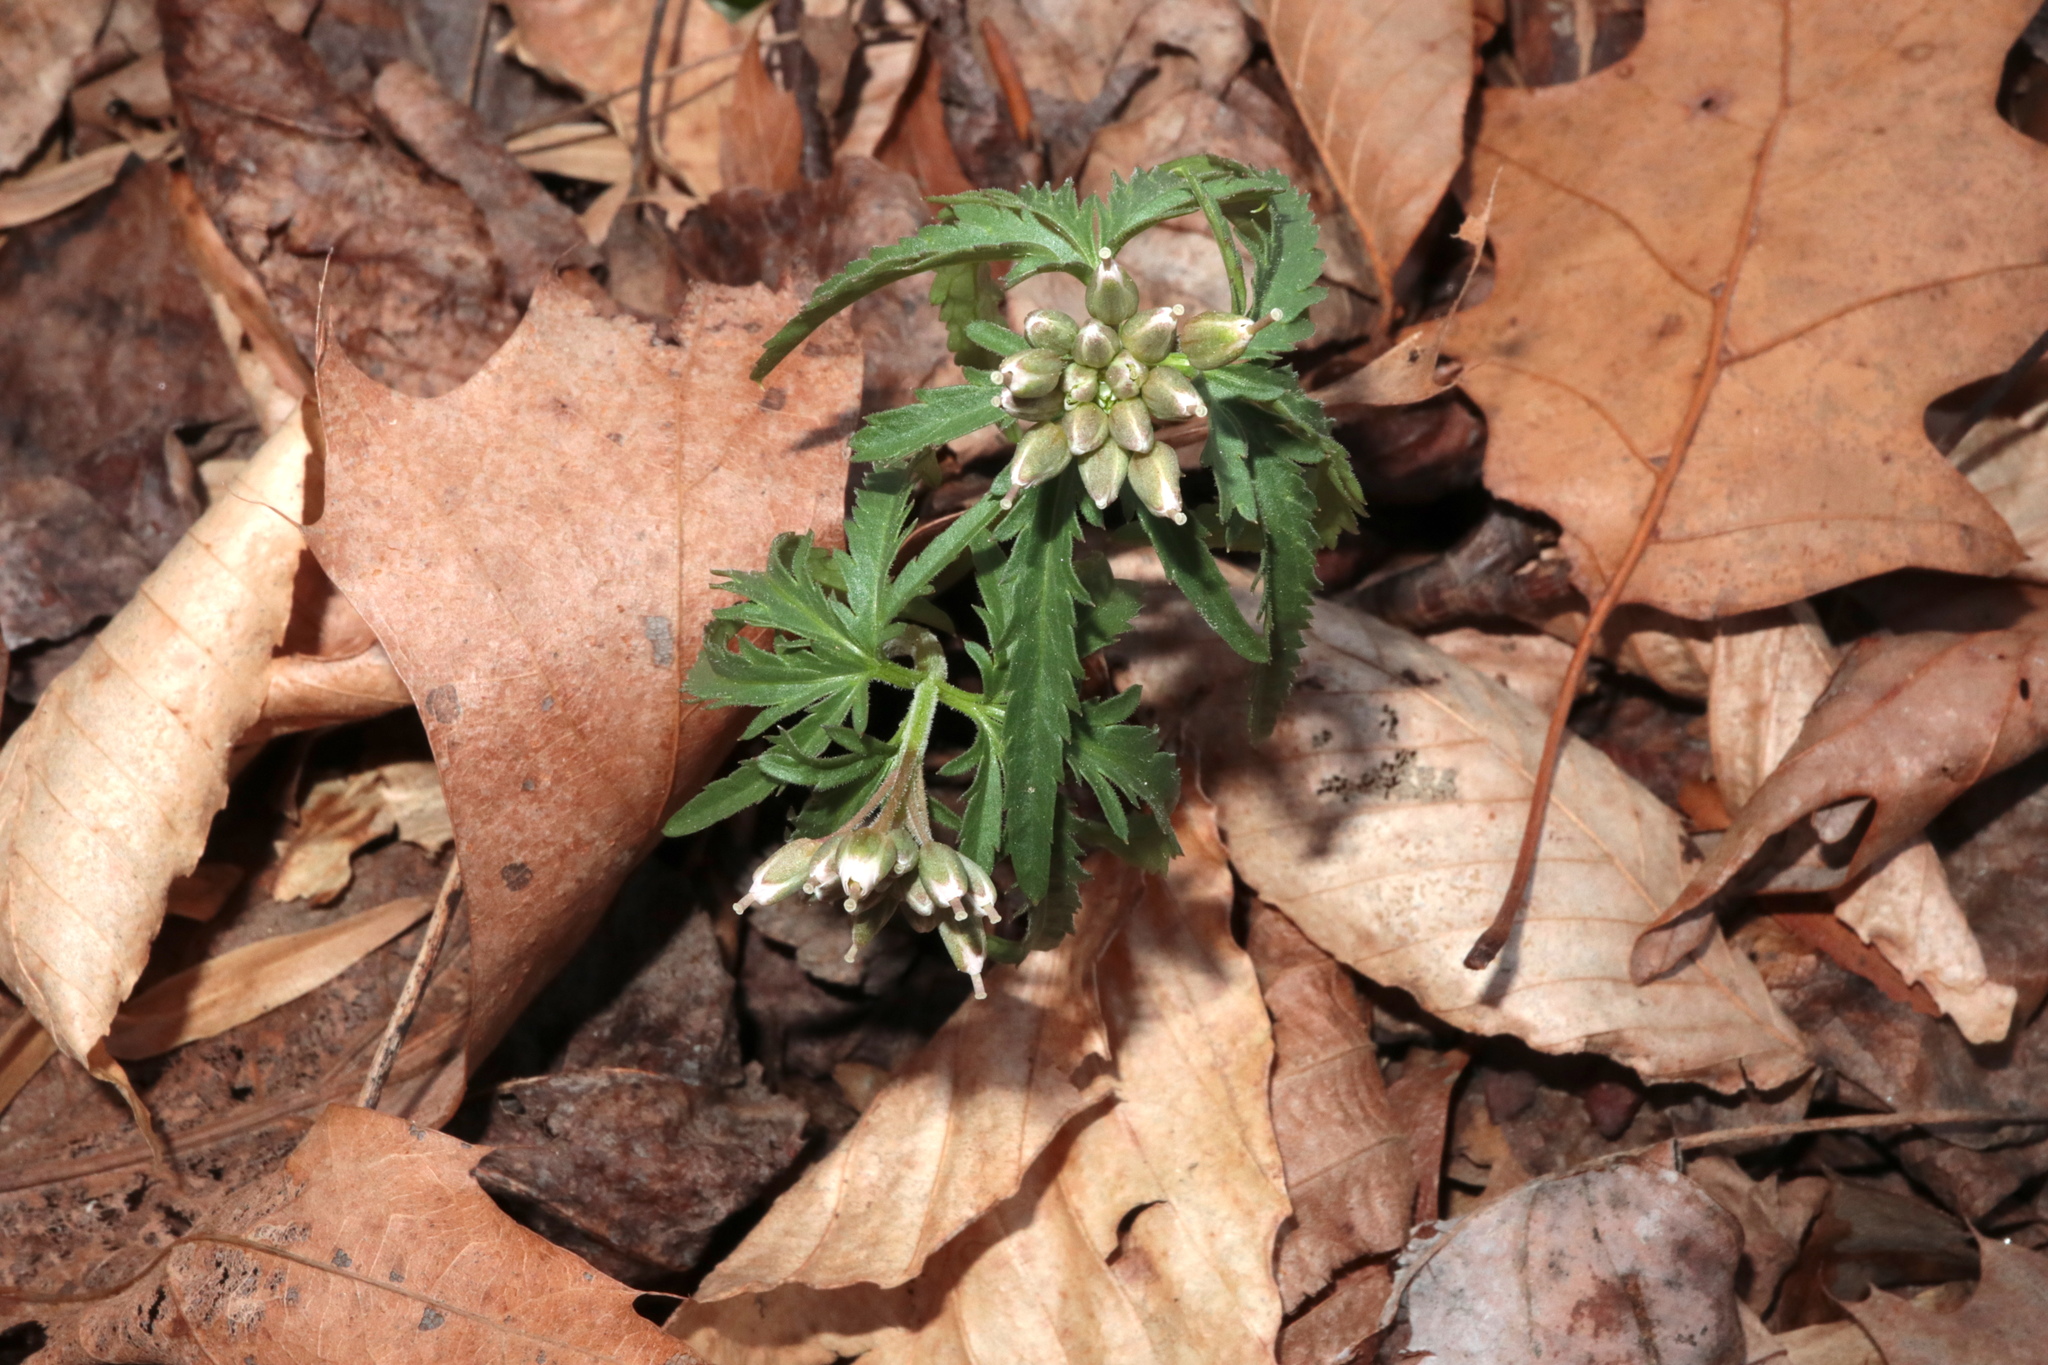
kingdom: Plantae
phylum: Tracheophyta
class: Magnoliopsida
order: Brassicales
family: Brassicaceae
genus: Cardamine
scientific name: Cardamine concatenata
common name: Cut-leaf toothcup
